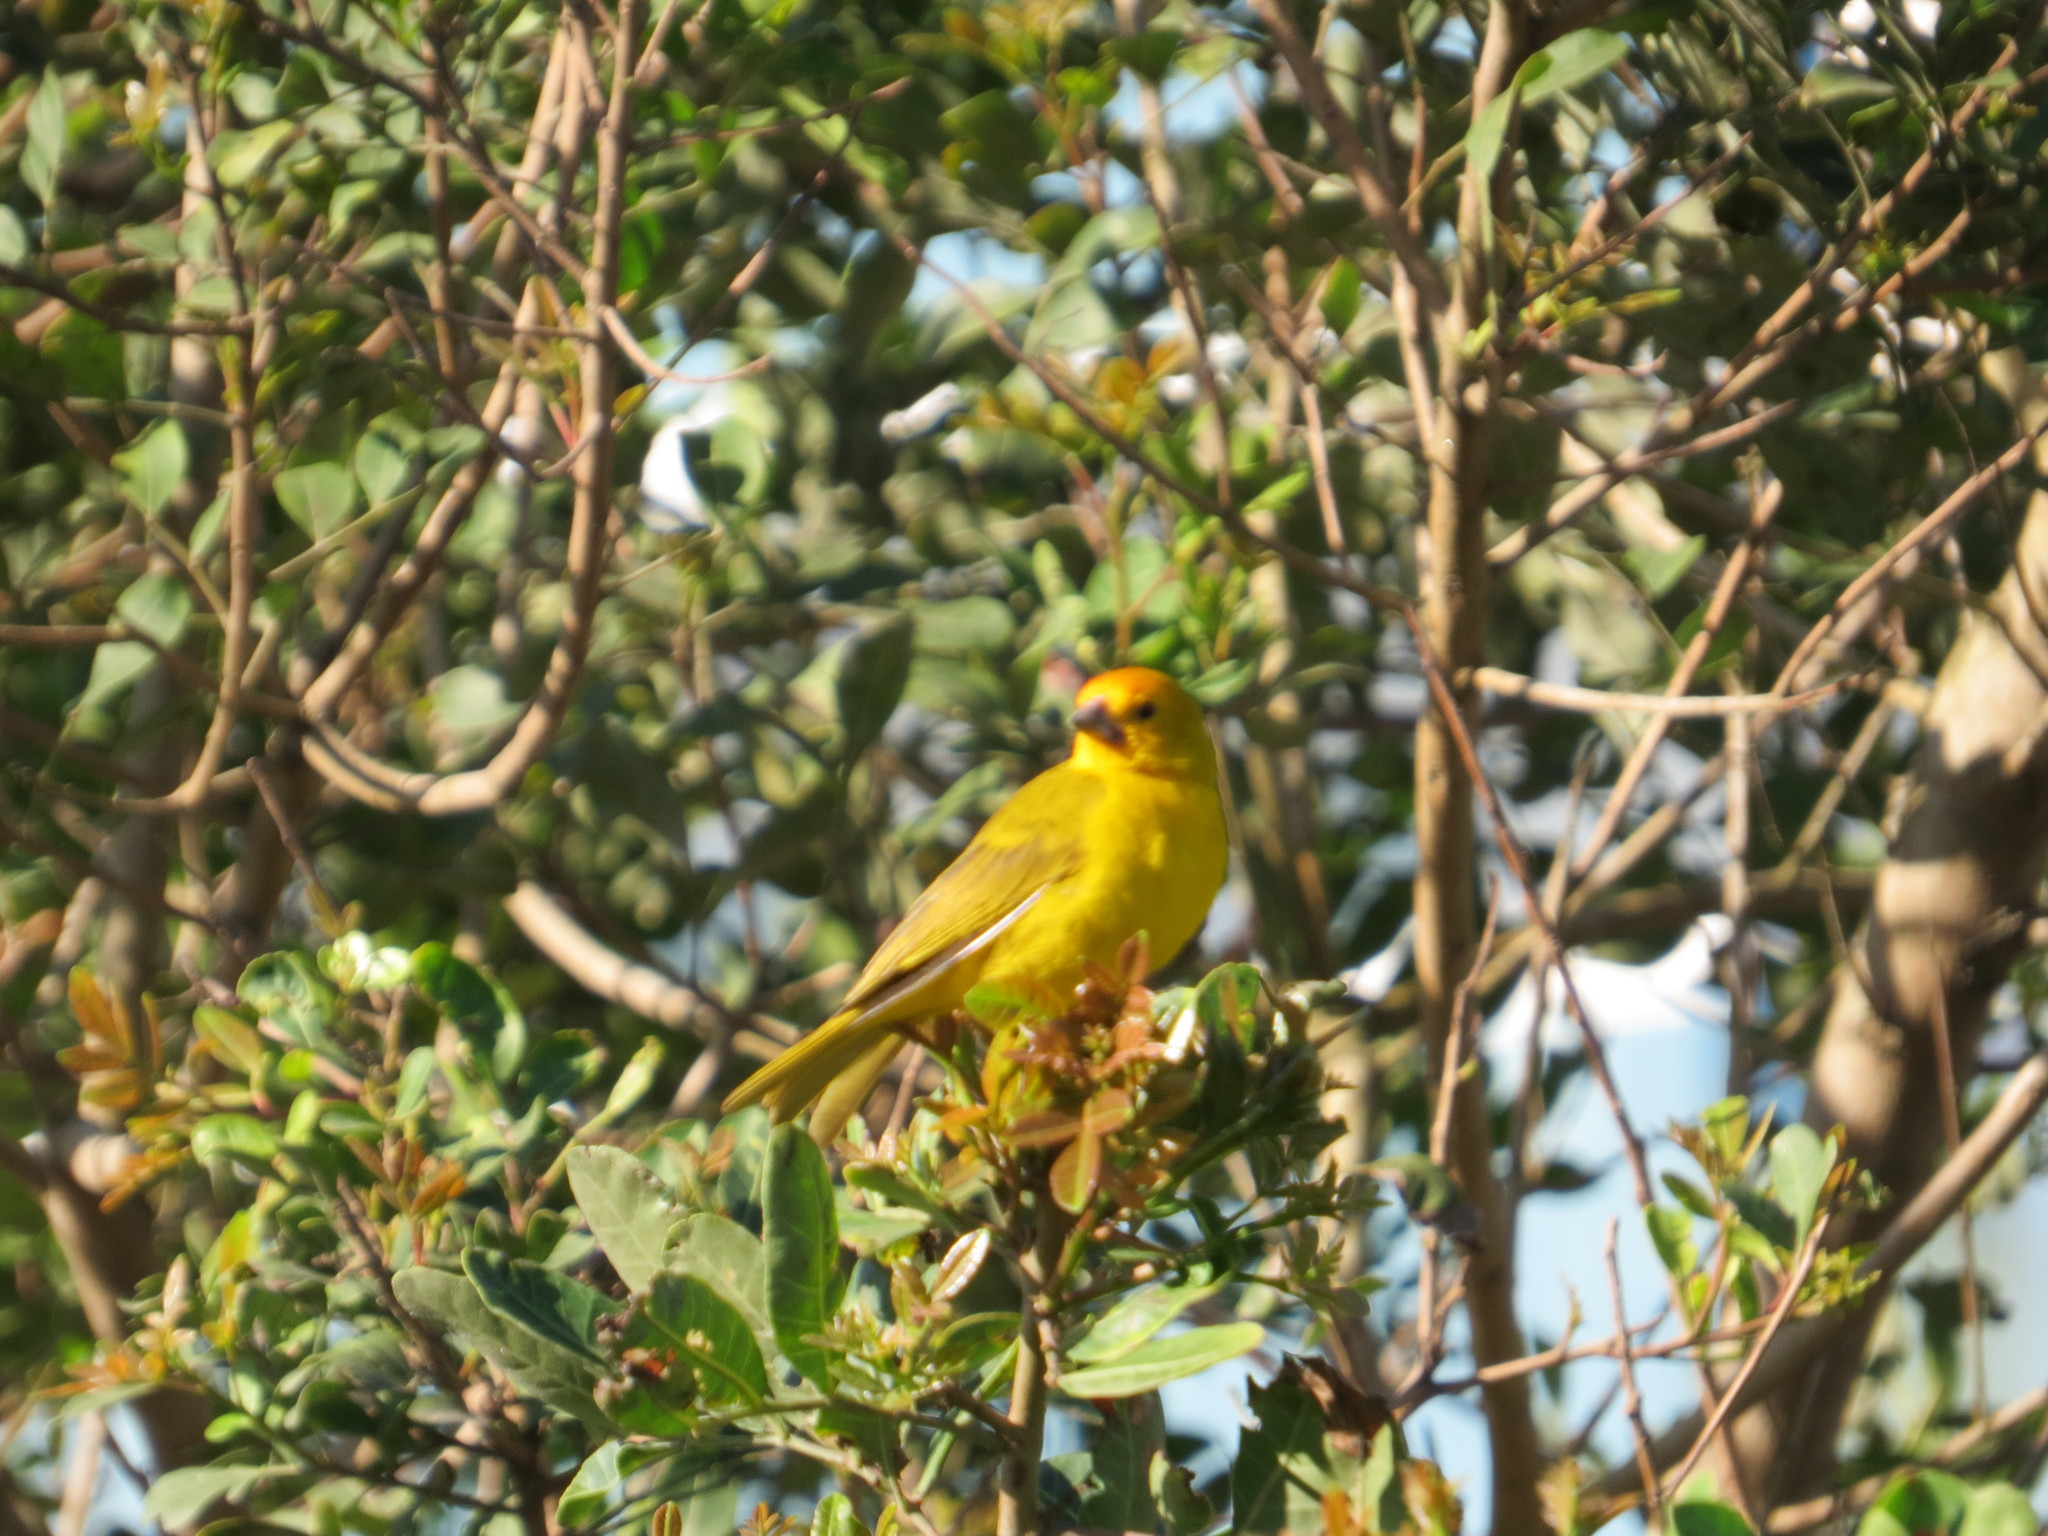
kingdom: Animalia
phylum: Chordata
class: Aves
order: Passeriformes
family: Thraupidae
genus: Sicalis
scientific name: Sicalis flaveola
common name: Saffron finch
